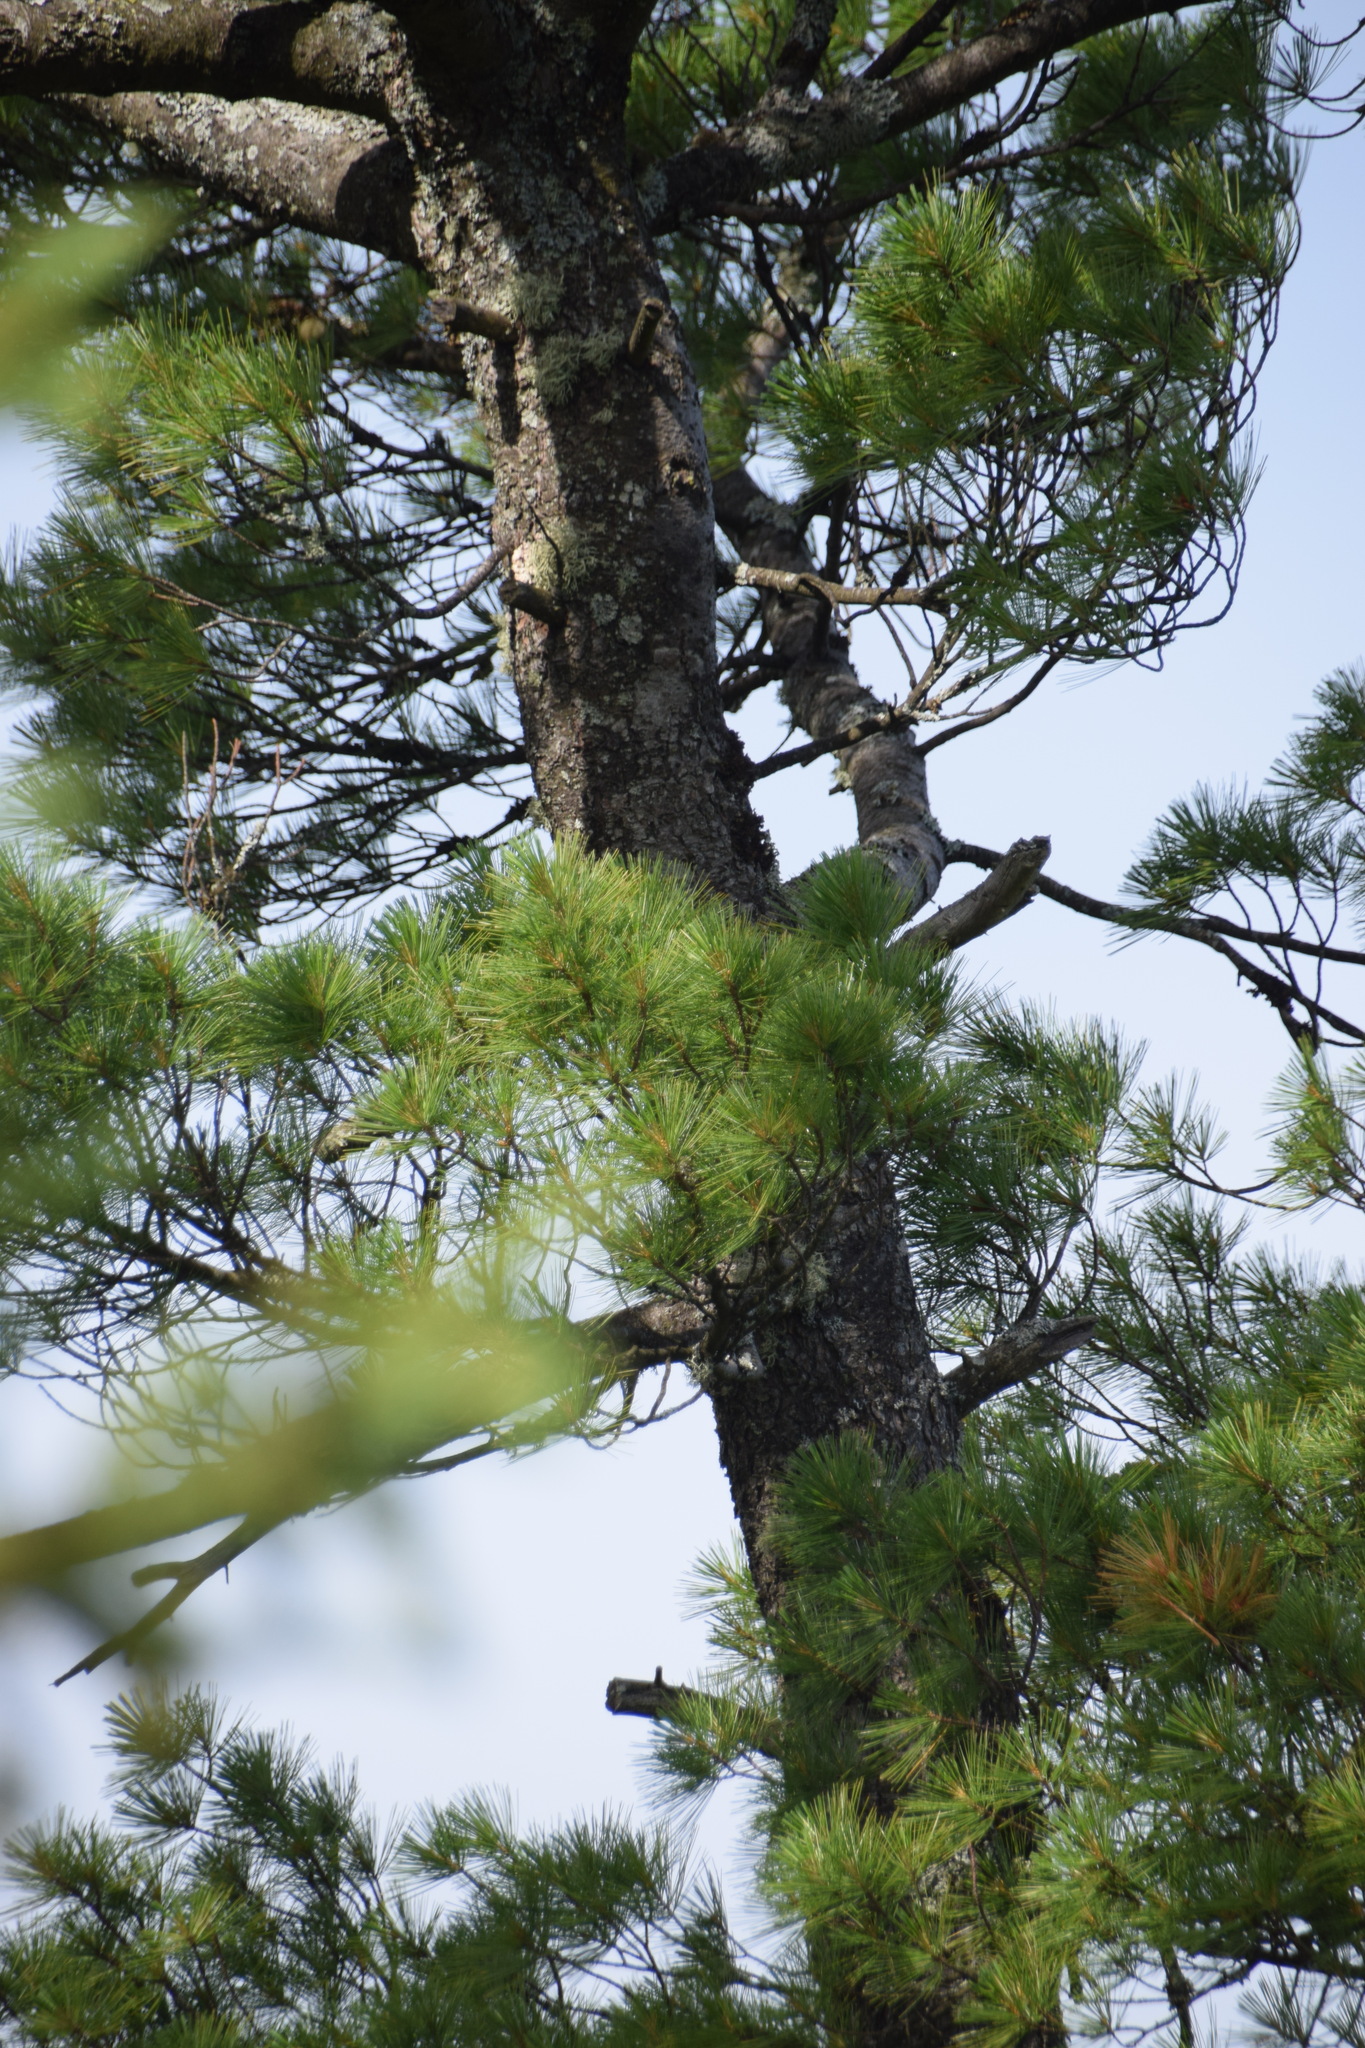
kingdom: Plantae
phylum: Tracheophyta
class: Pinopsida
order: Pinales
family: Pinaceae
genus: Pinus
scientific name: Pinus strobus
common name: Weymouth pine
